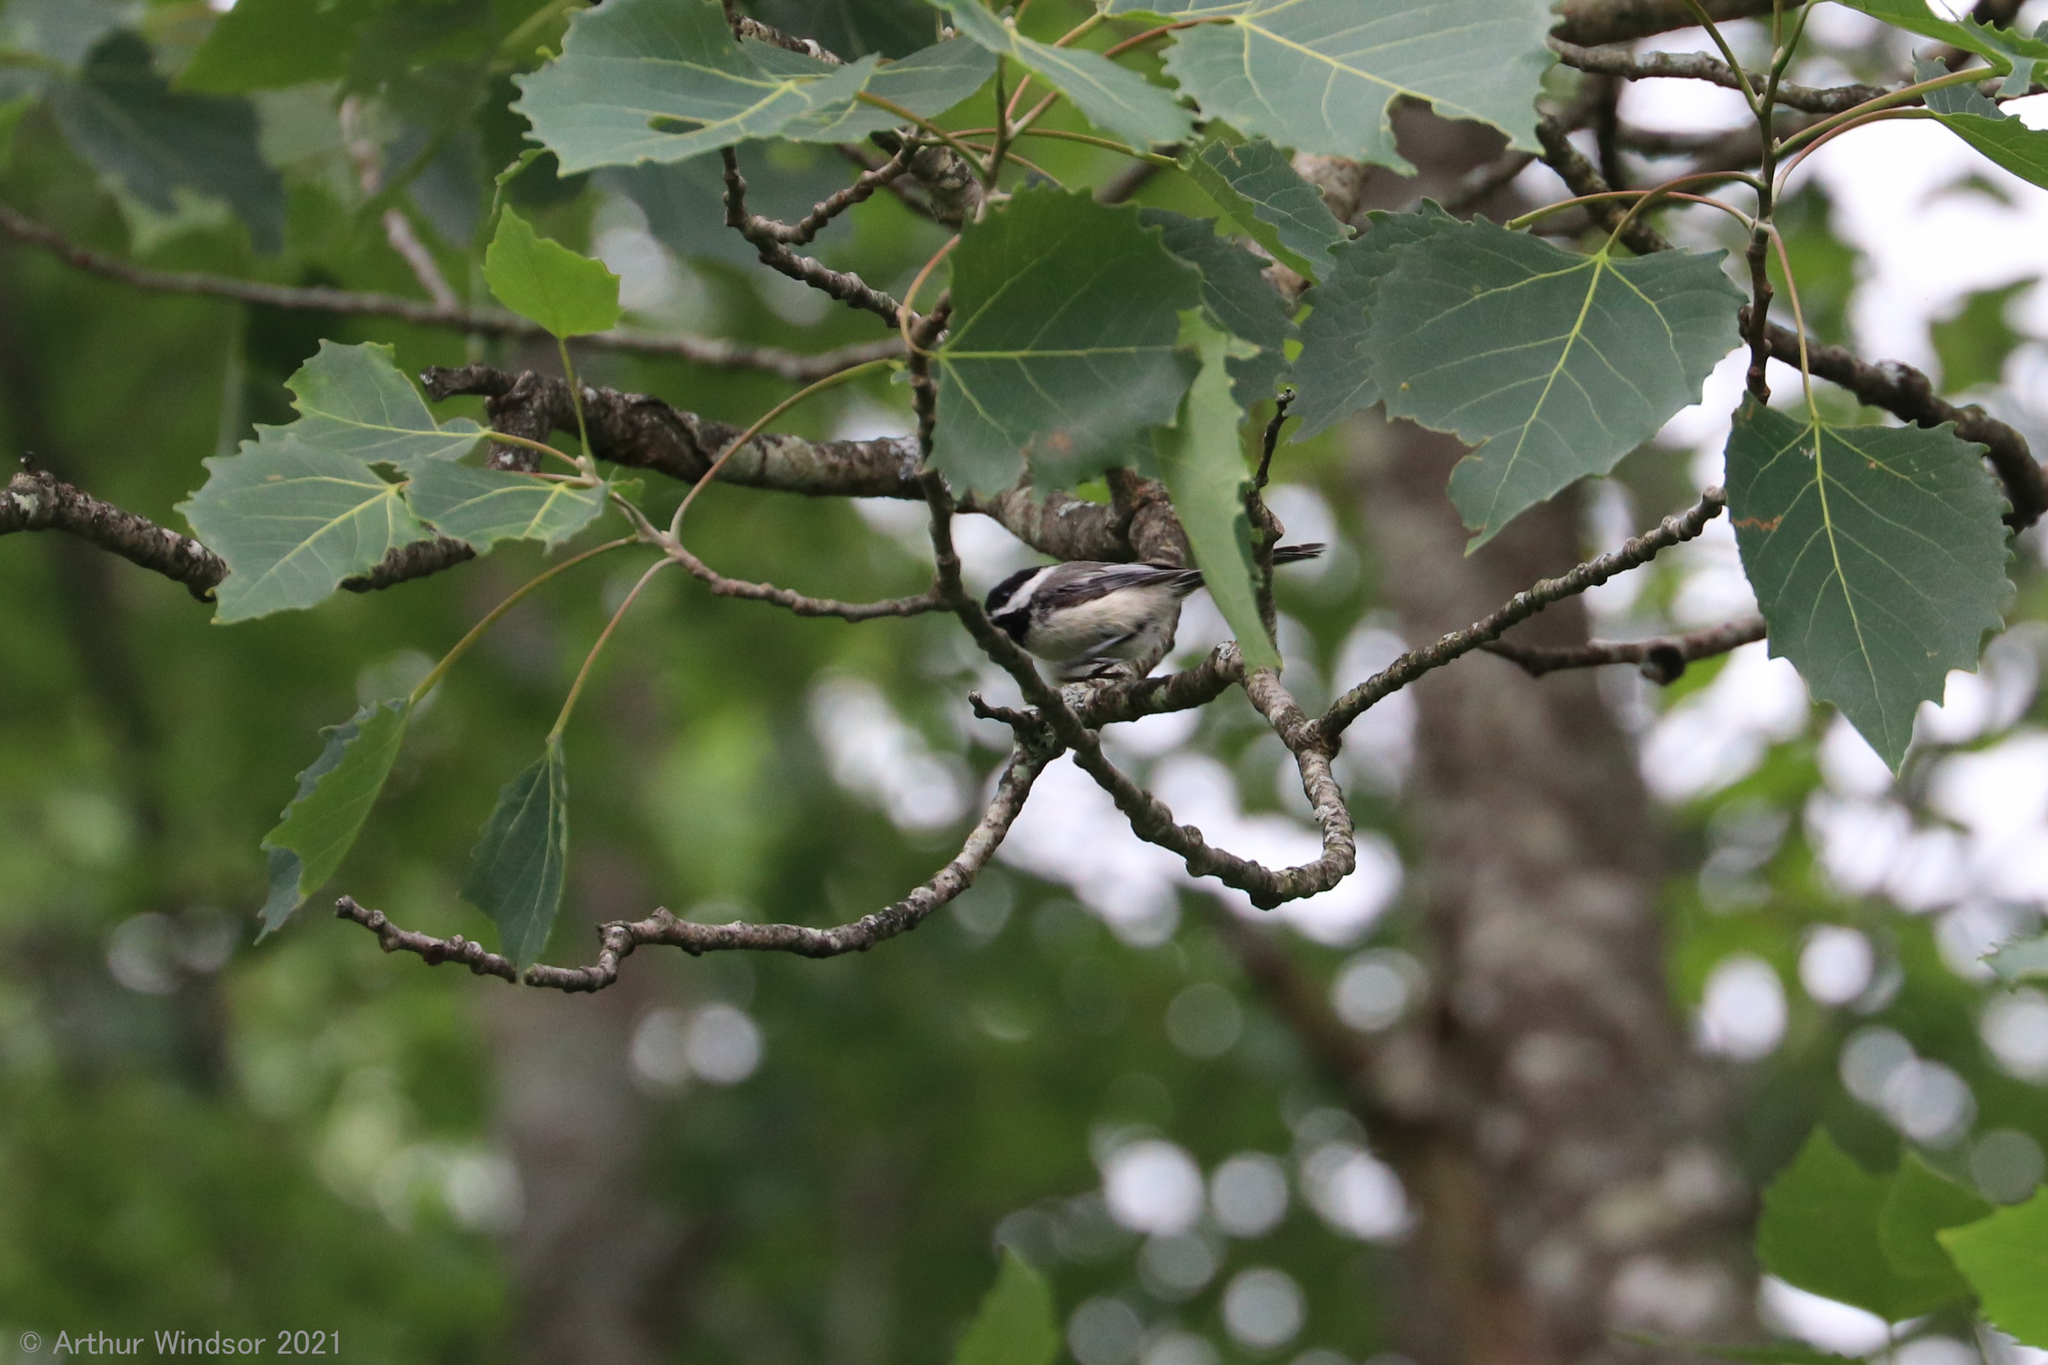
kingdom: Animalia
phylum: Chordata
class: Aves
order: Passeriformes
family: Paridae
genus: Poecile
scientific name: Poecile atricapillus
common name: Black-capped chickadee
